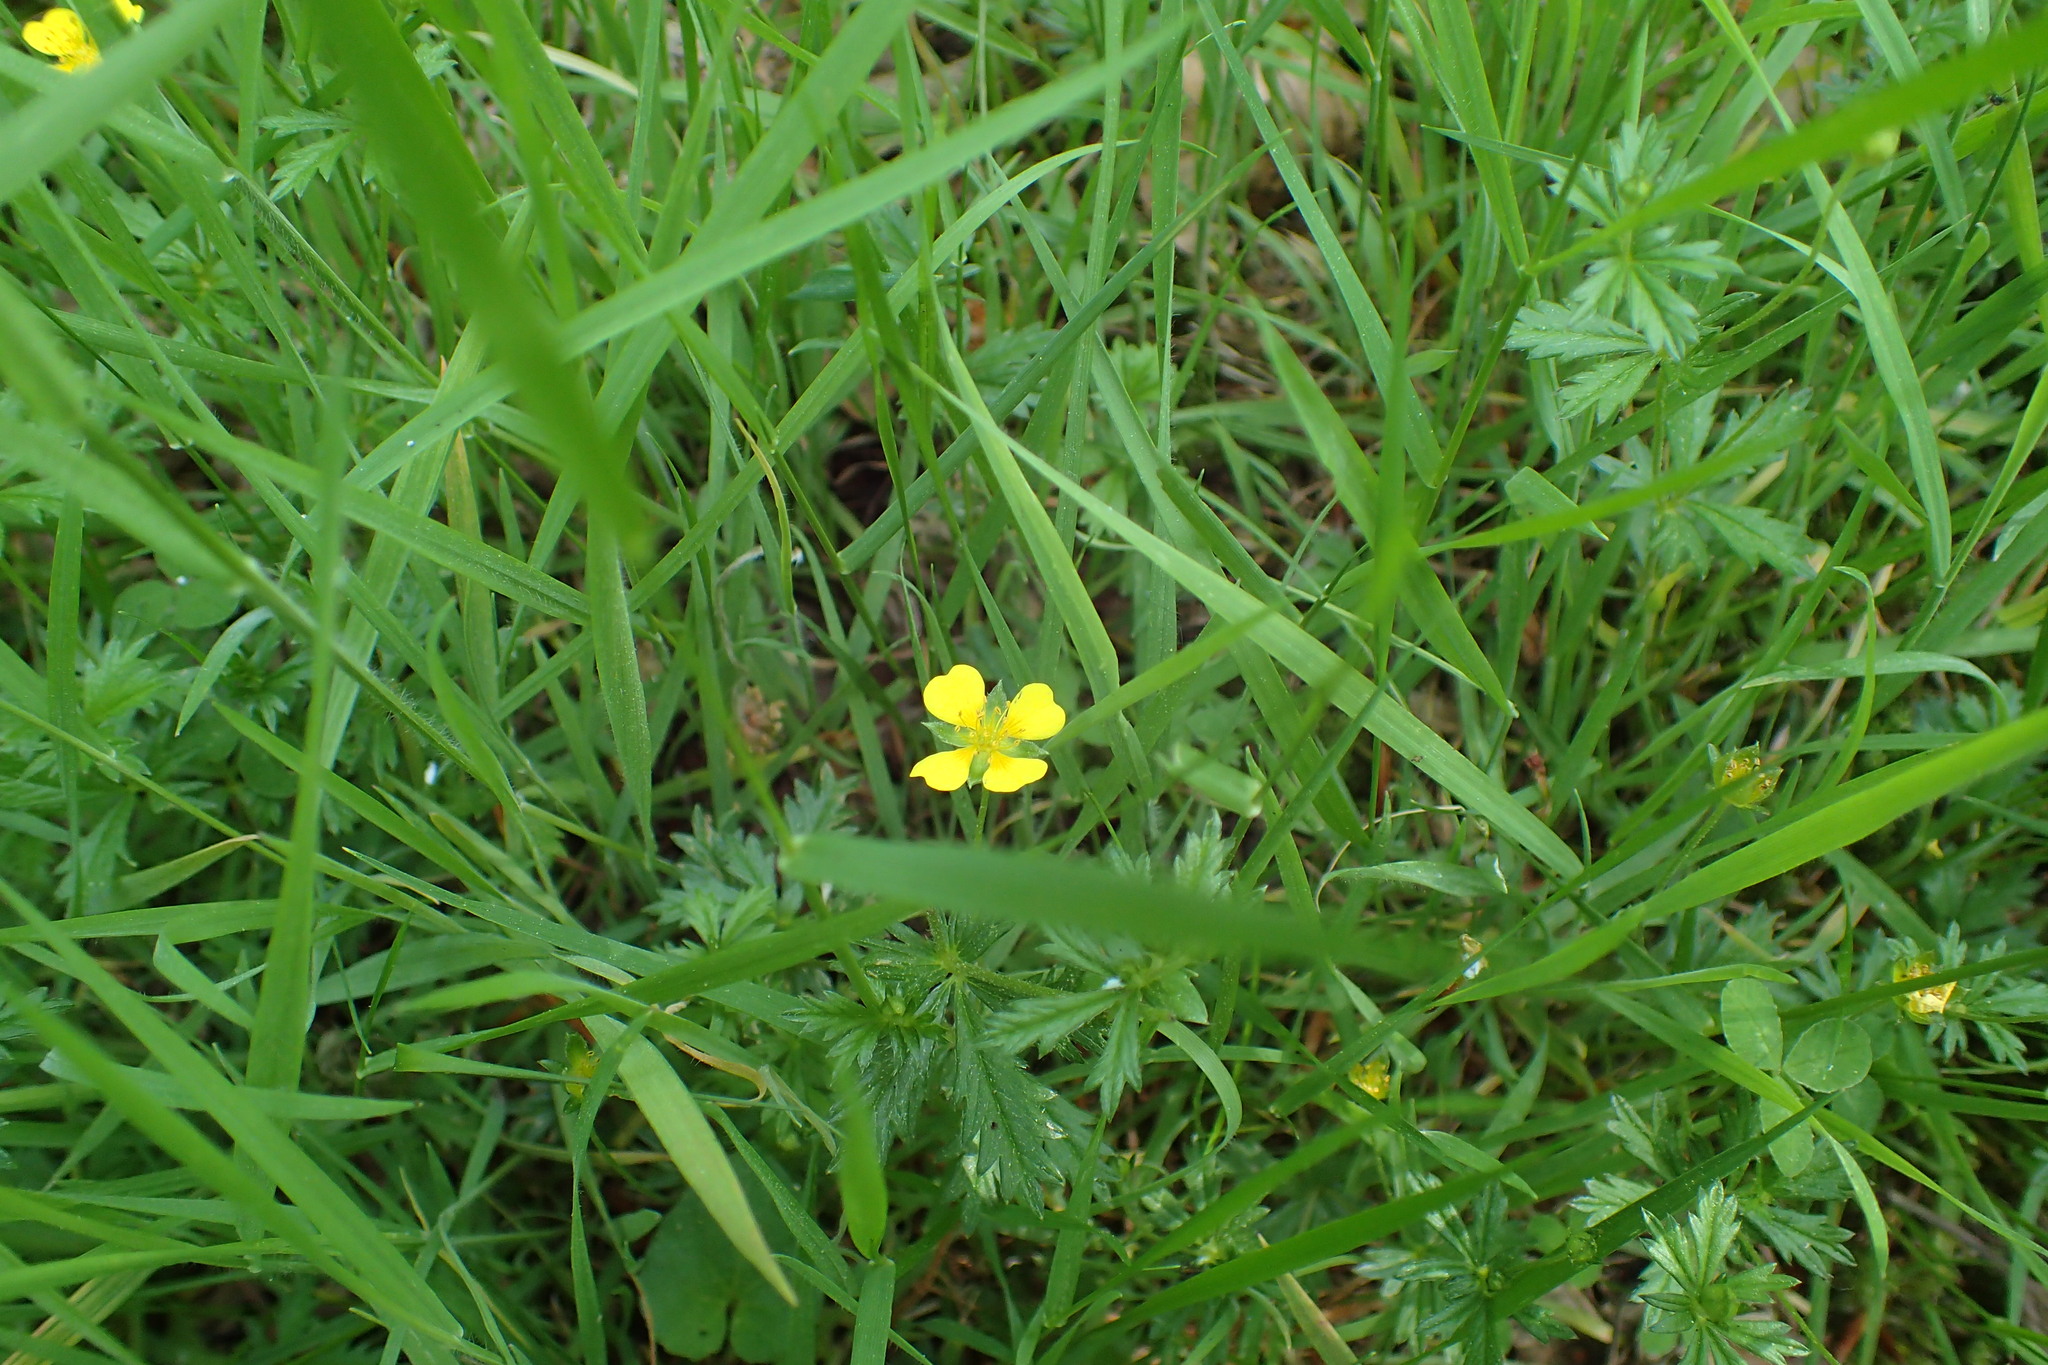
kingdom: Plantae
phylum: Tracheophyta
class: Magnoliopsida
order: Rosales
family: Rosaceae
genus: Potentilla
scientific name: Potentilla erecta
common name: Tormentil
